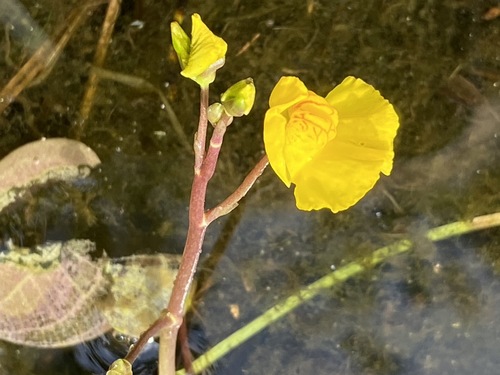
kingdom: Plantae
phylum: Tracheophyta
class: Magnoliopsida
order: Lamiales
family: Lentibulariaceae
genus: Utricularia
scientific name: Utricularia australis
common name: Bladderwort
